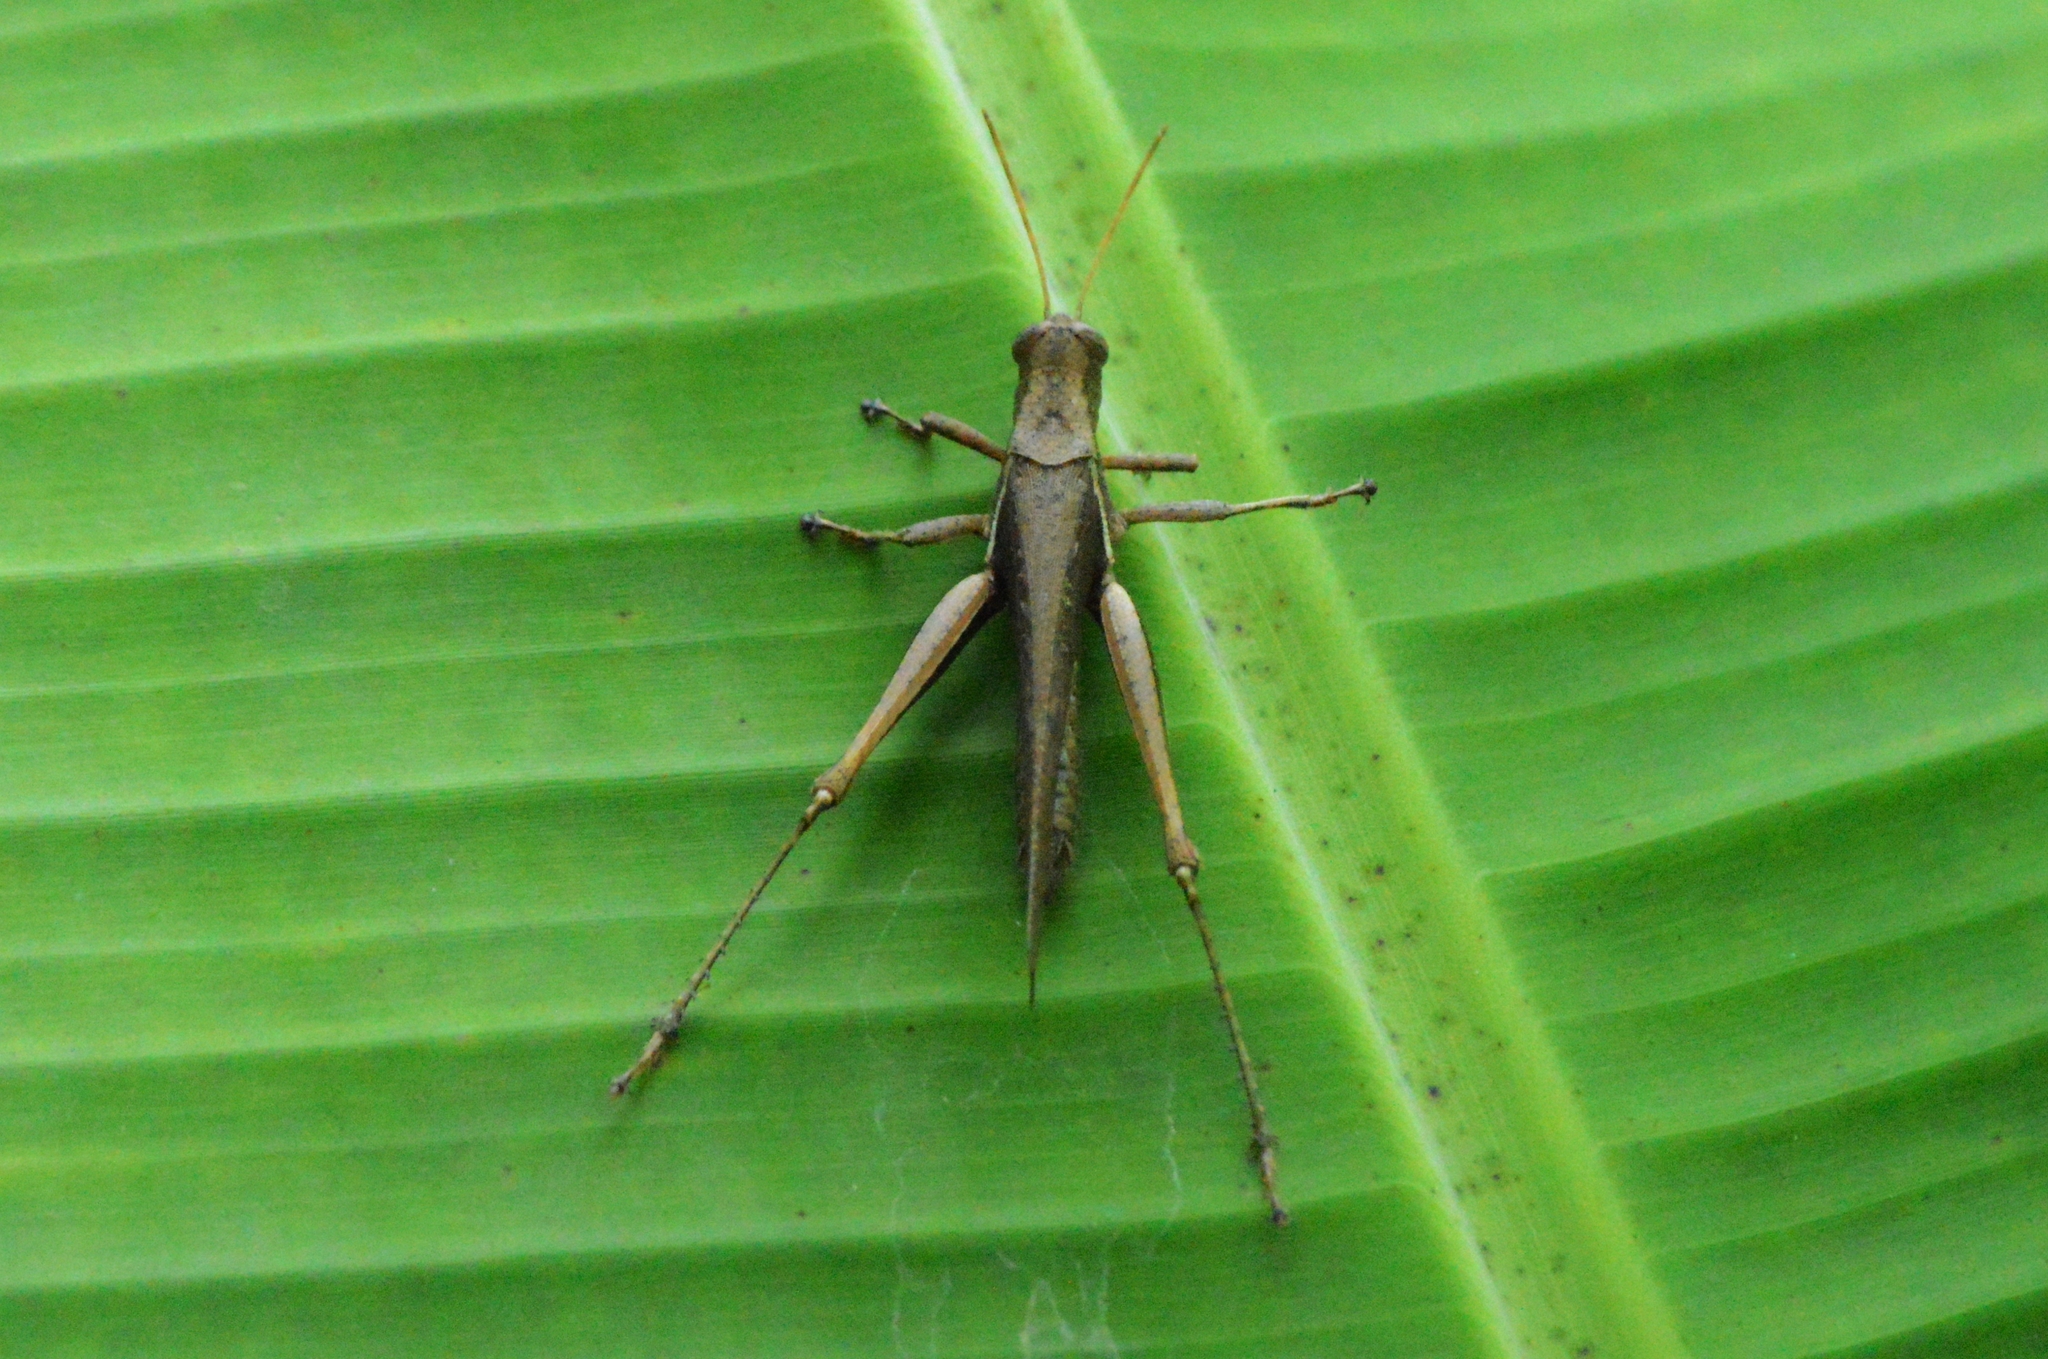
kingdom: Animalia
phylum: Arthropoda
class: Insecta
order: Orthoptera
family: Acrididae
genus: Abracris
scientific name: Abracris flavolineata
